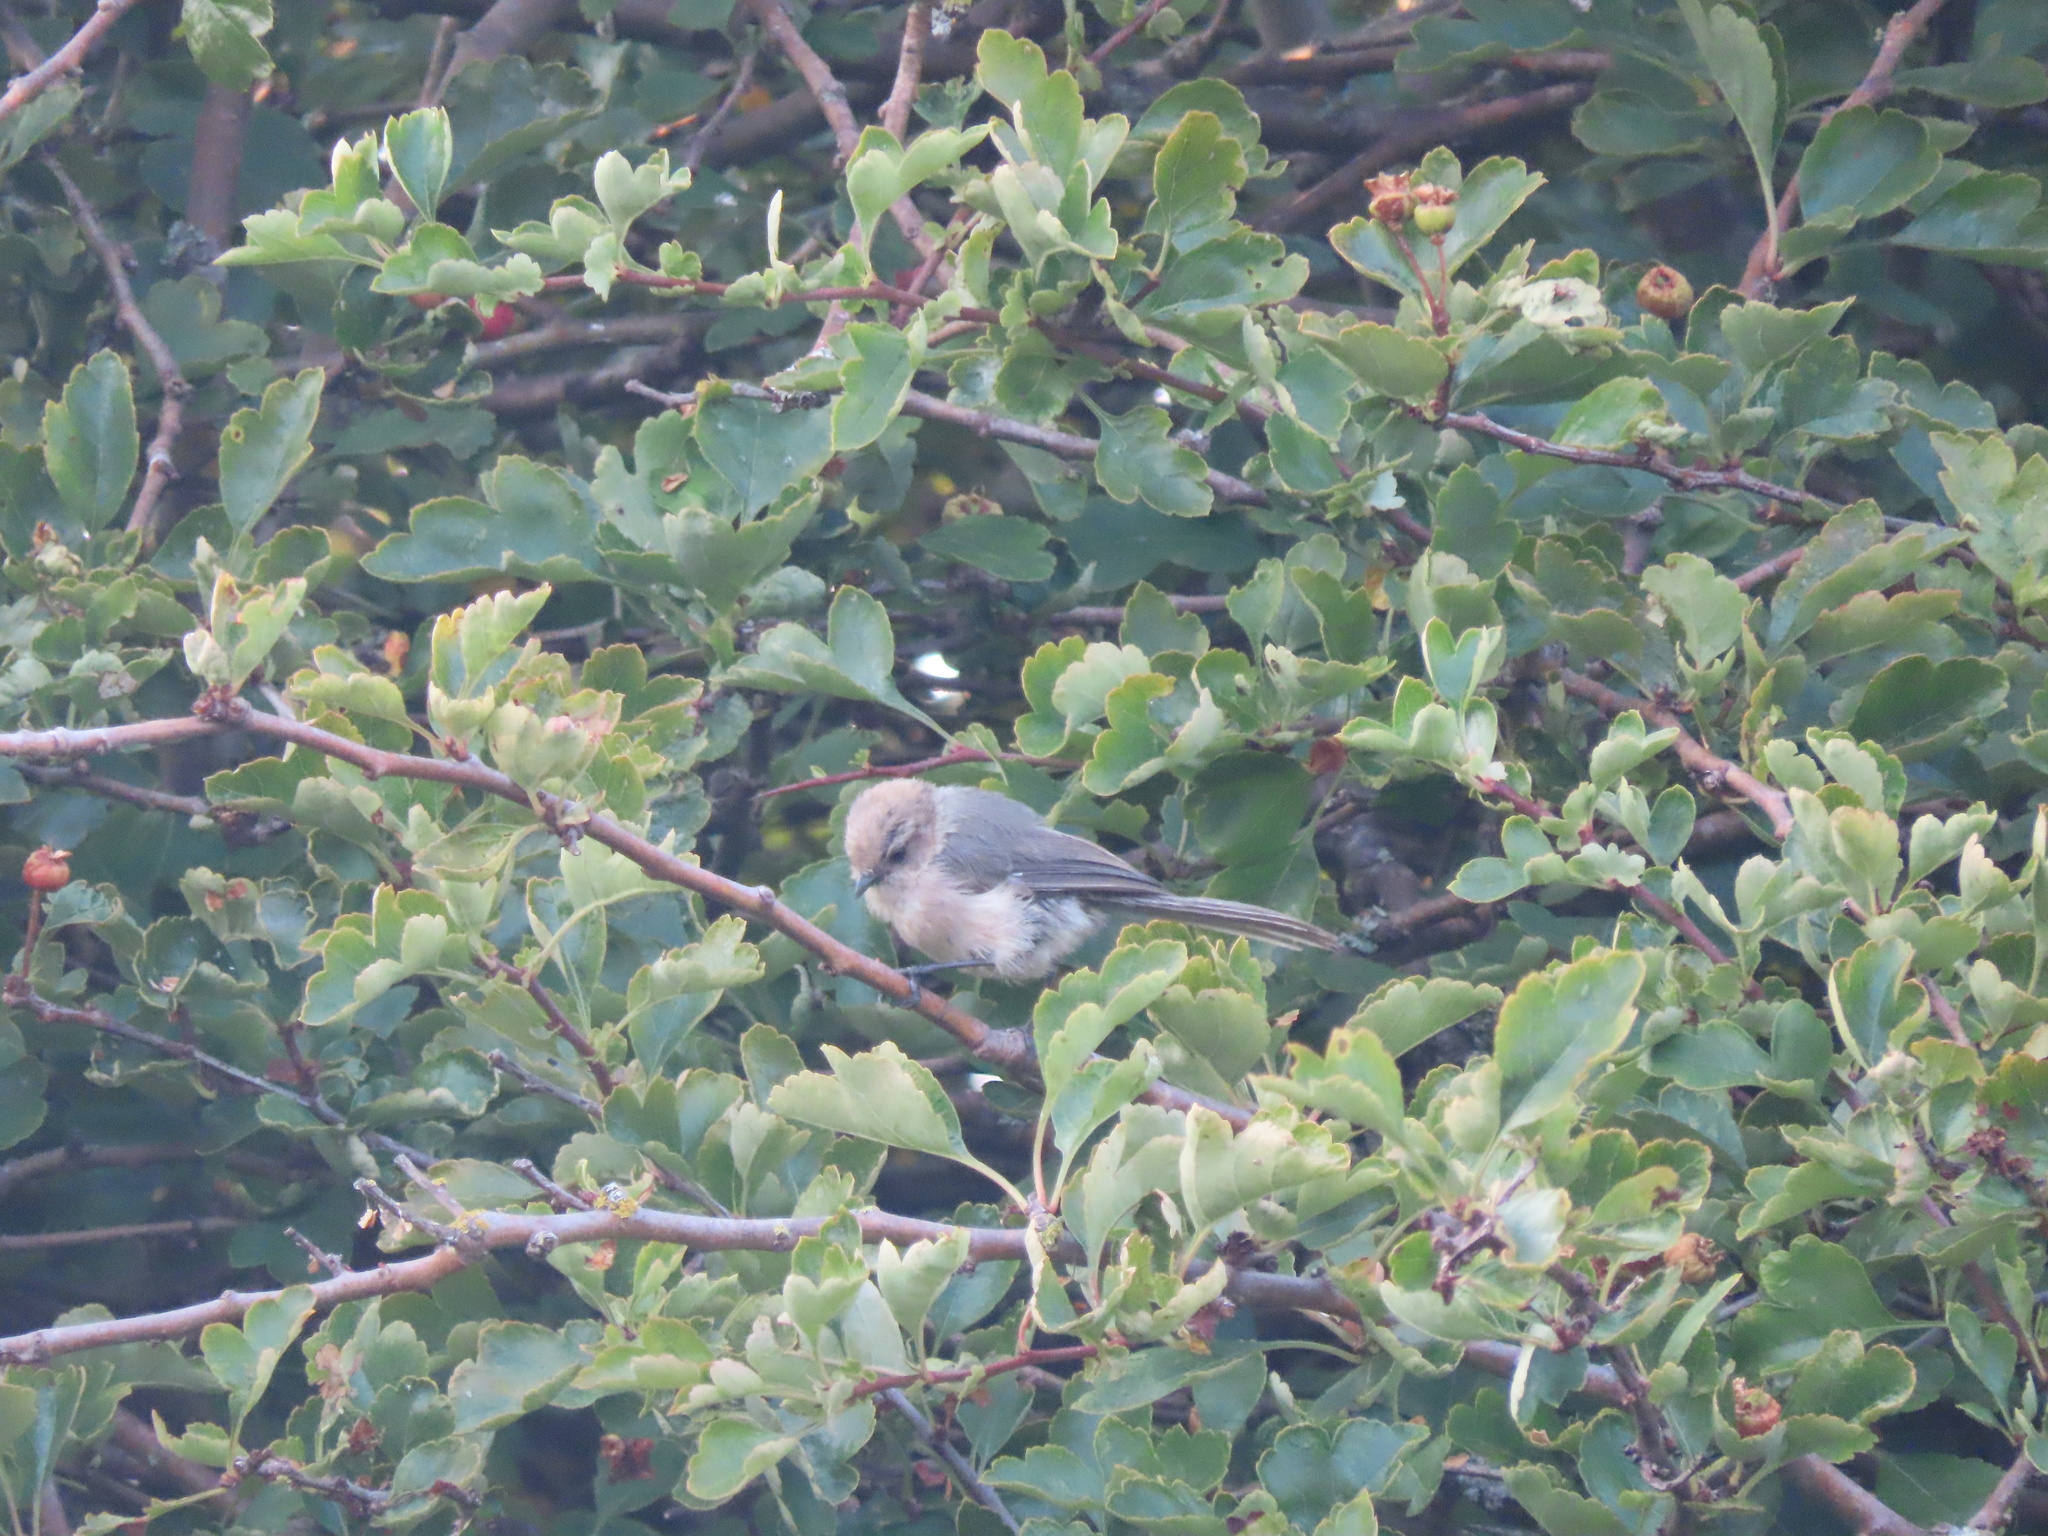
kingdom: Animalia
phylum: Chordata
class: Aves
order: Passeriformes
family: Aegithalidae
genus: Psaltriparus
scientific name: Psaltriparus minimus
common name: American bushtit
